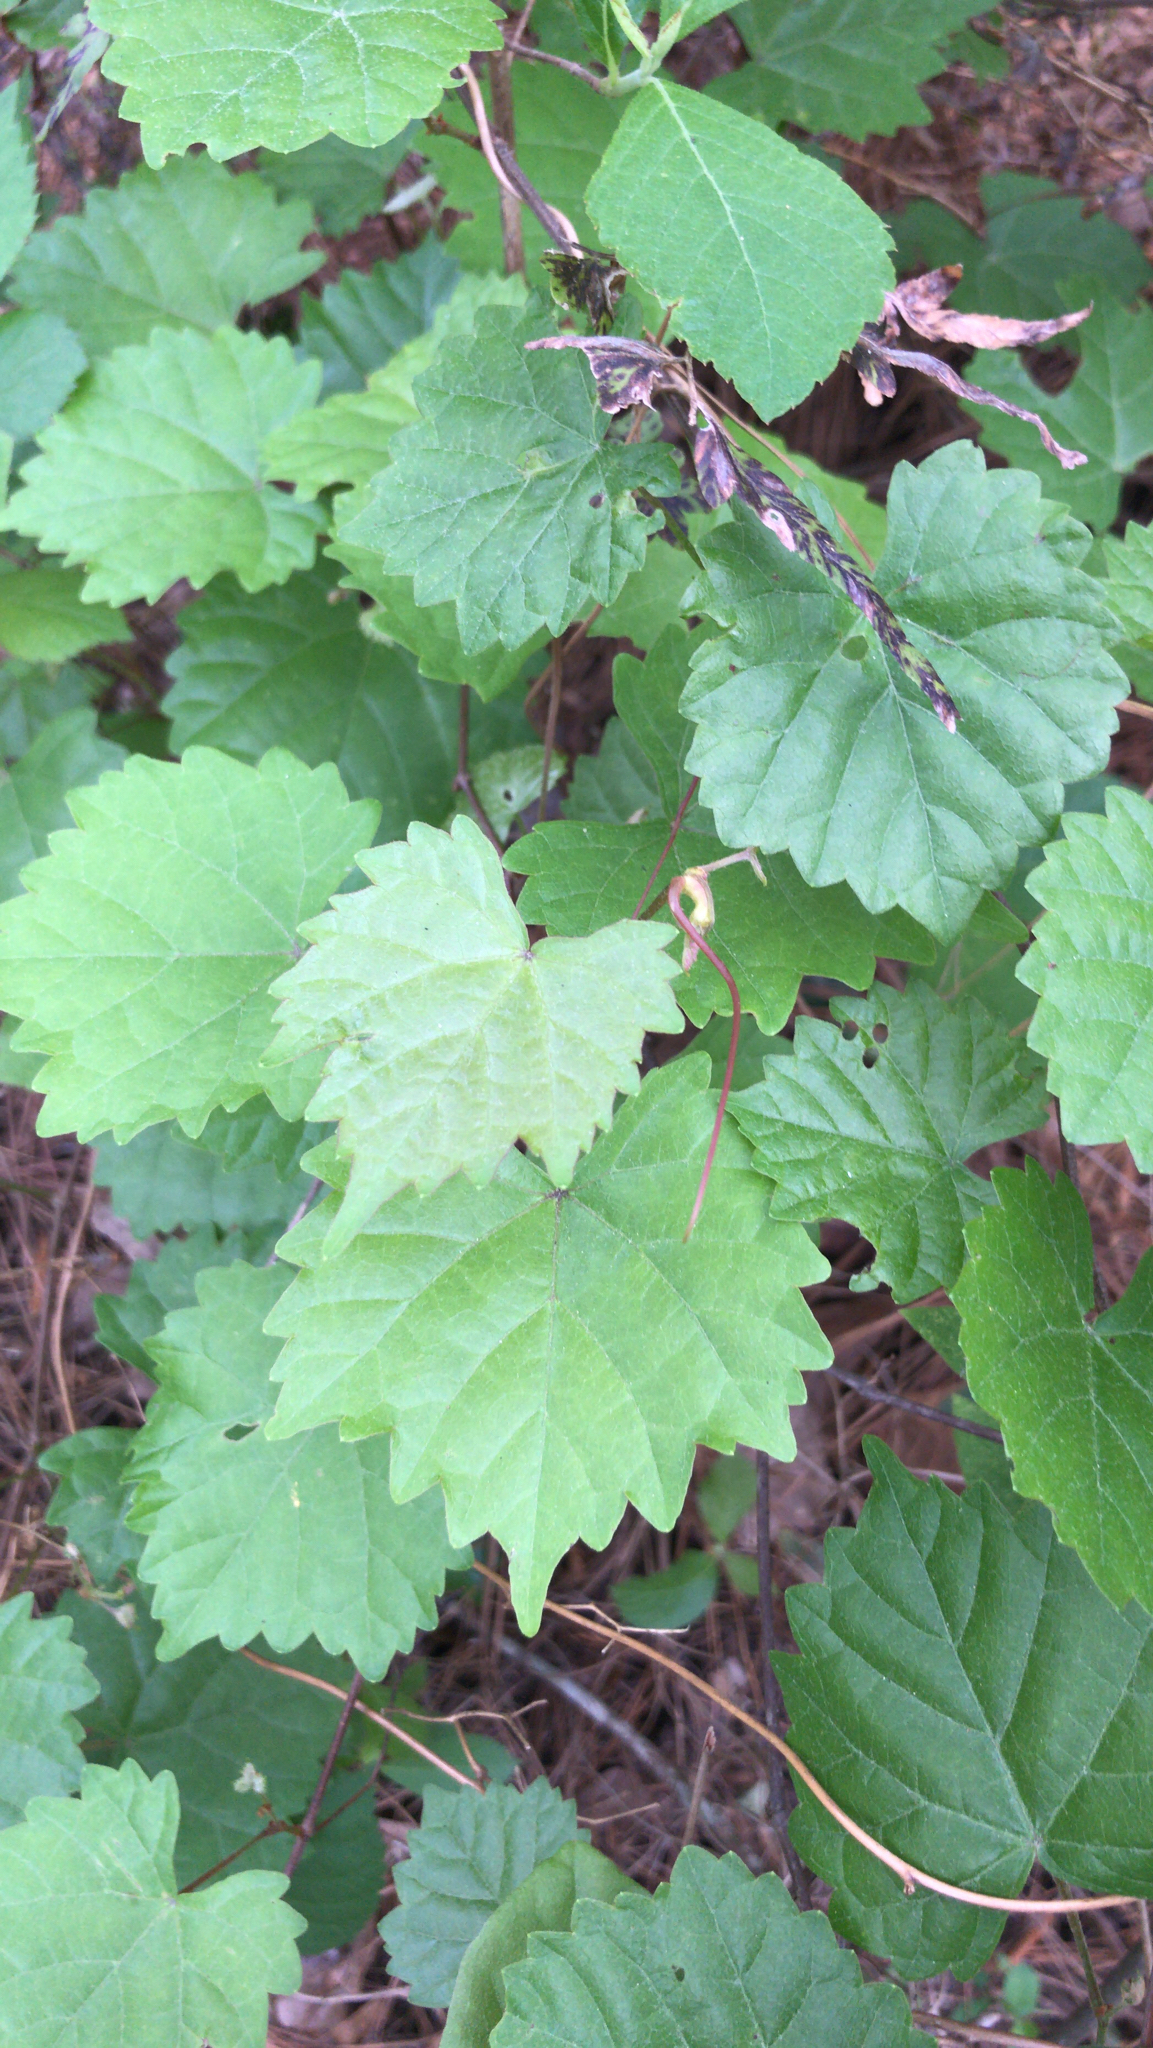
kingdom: Plantae
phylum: Tracheophyta
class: Magnoliopsida
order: Vitales
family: Vitaceae
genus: Vitis
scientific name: Vitis rotundifolia
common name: Muscadine grape
